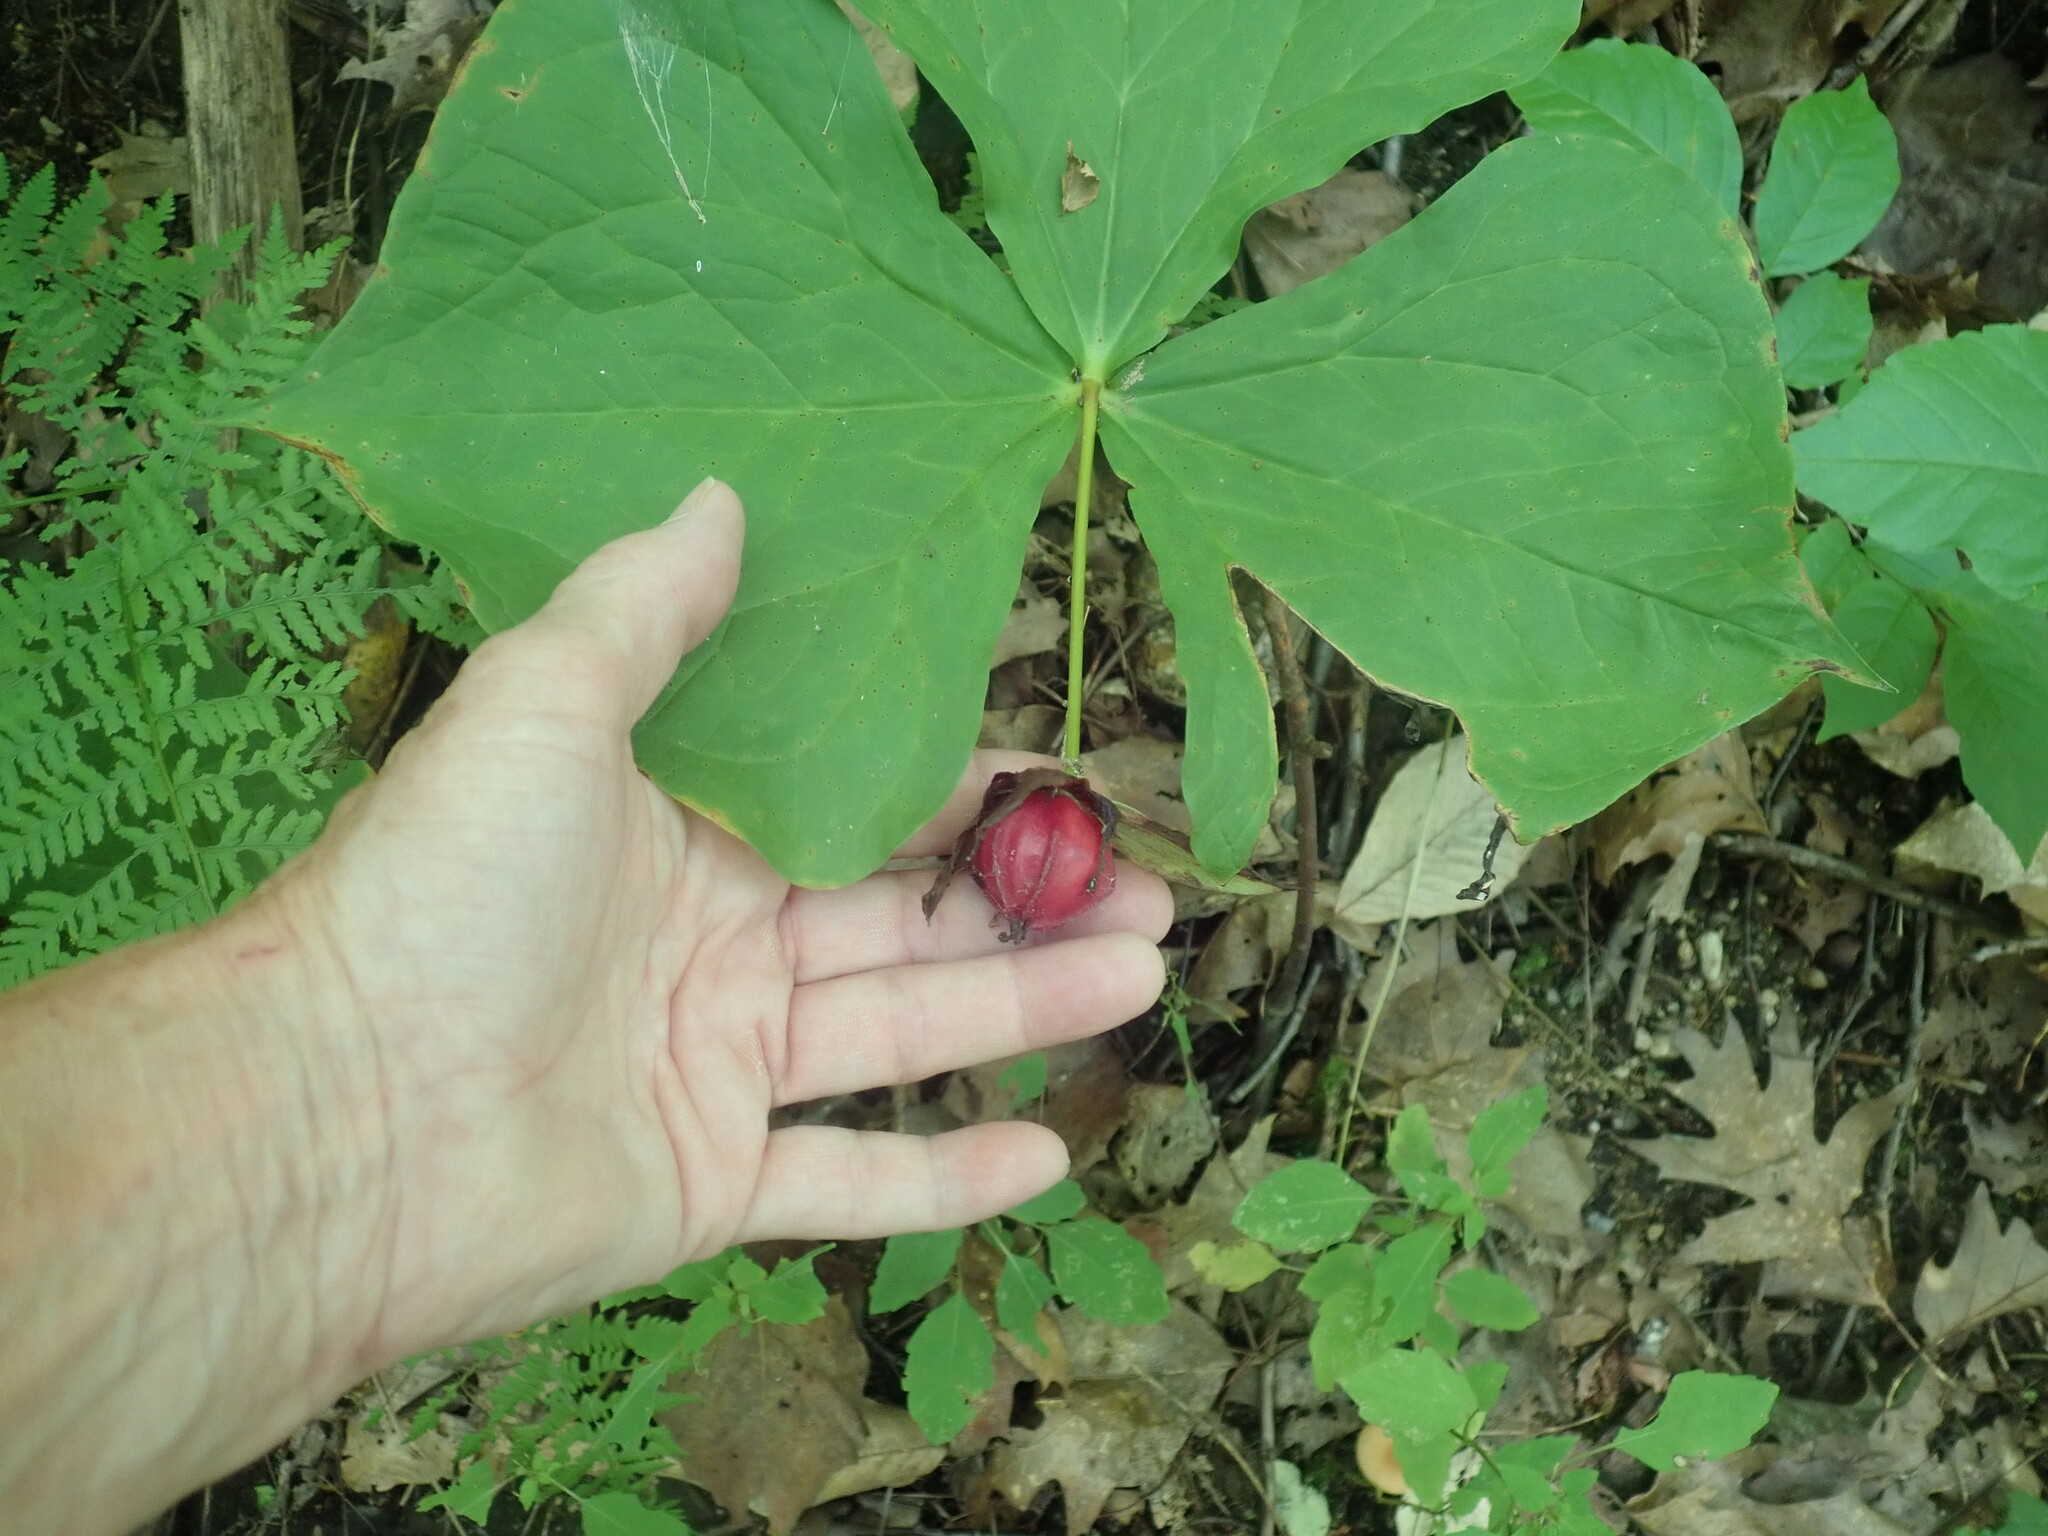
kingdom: Plantae
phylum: Tracheophyta
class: Liliopsida
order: Liliales
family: Melanthiaceae
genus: Trillium
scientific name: Trillium erectum
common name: Purple trillium
